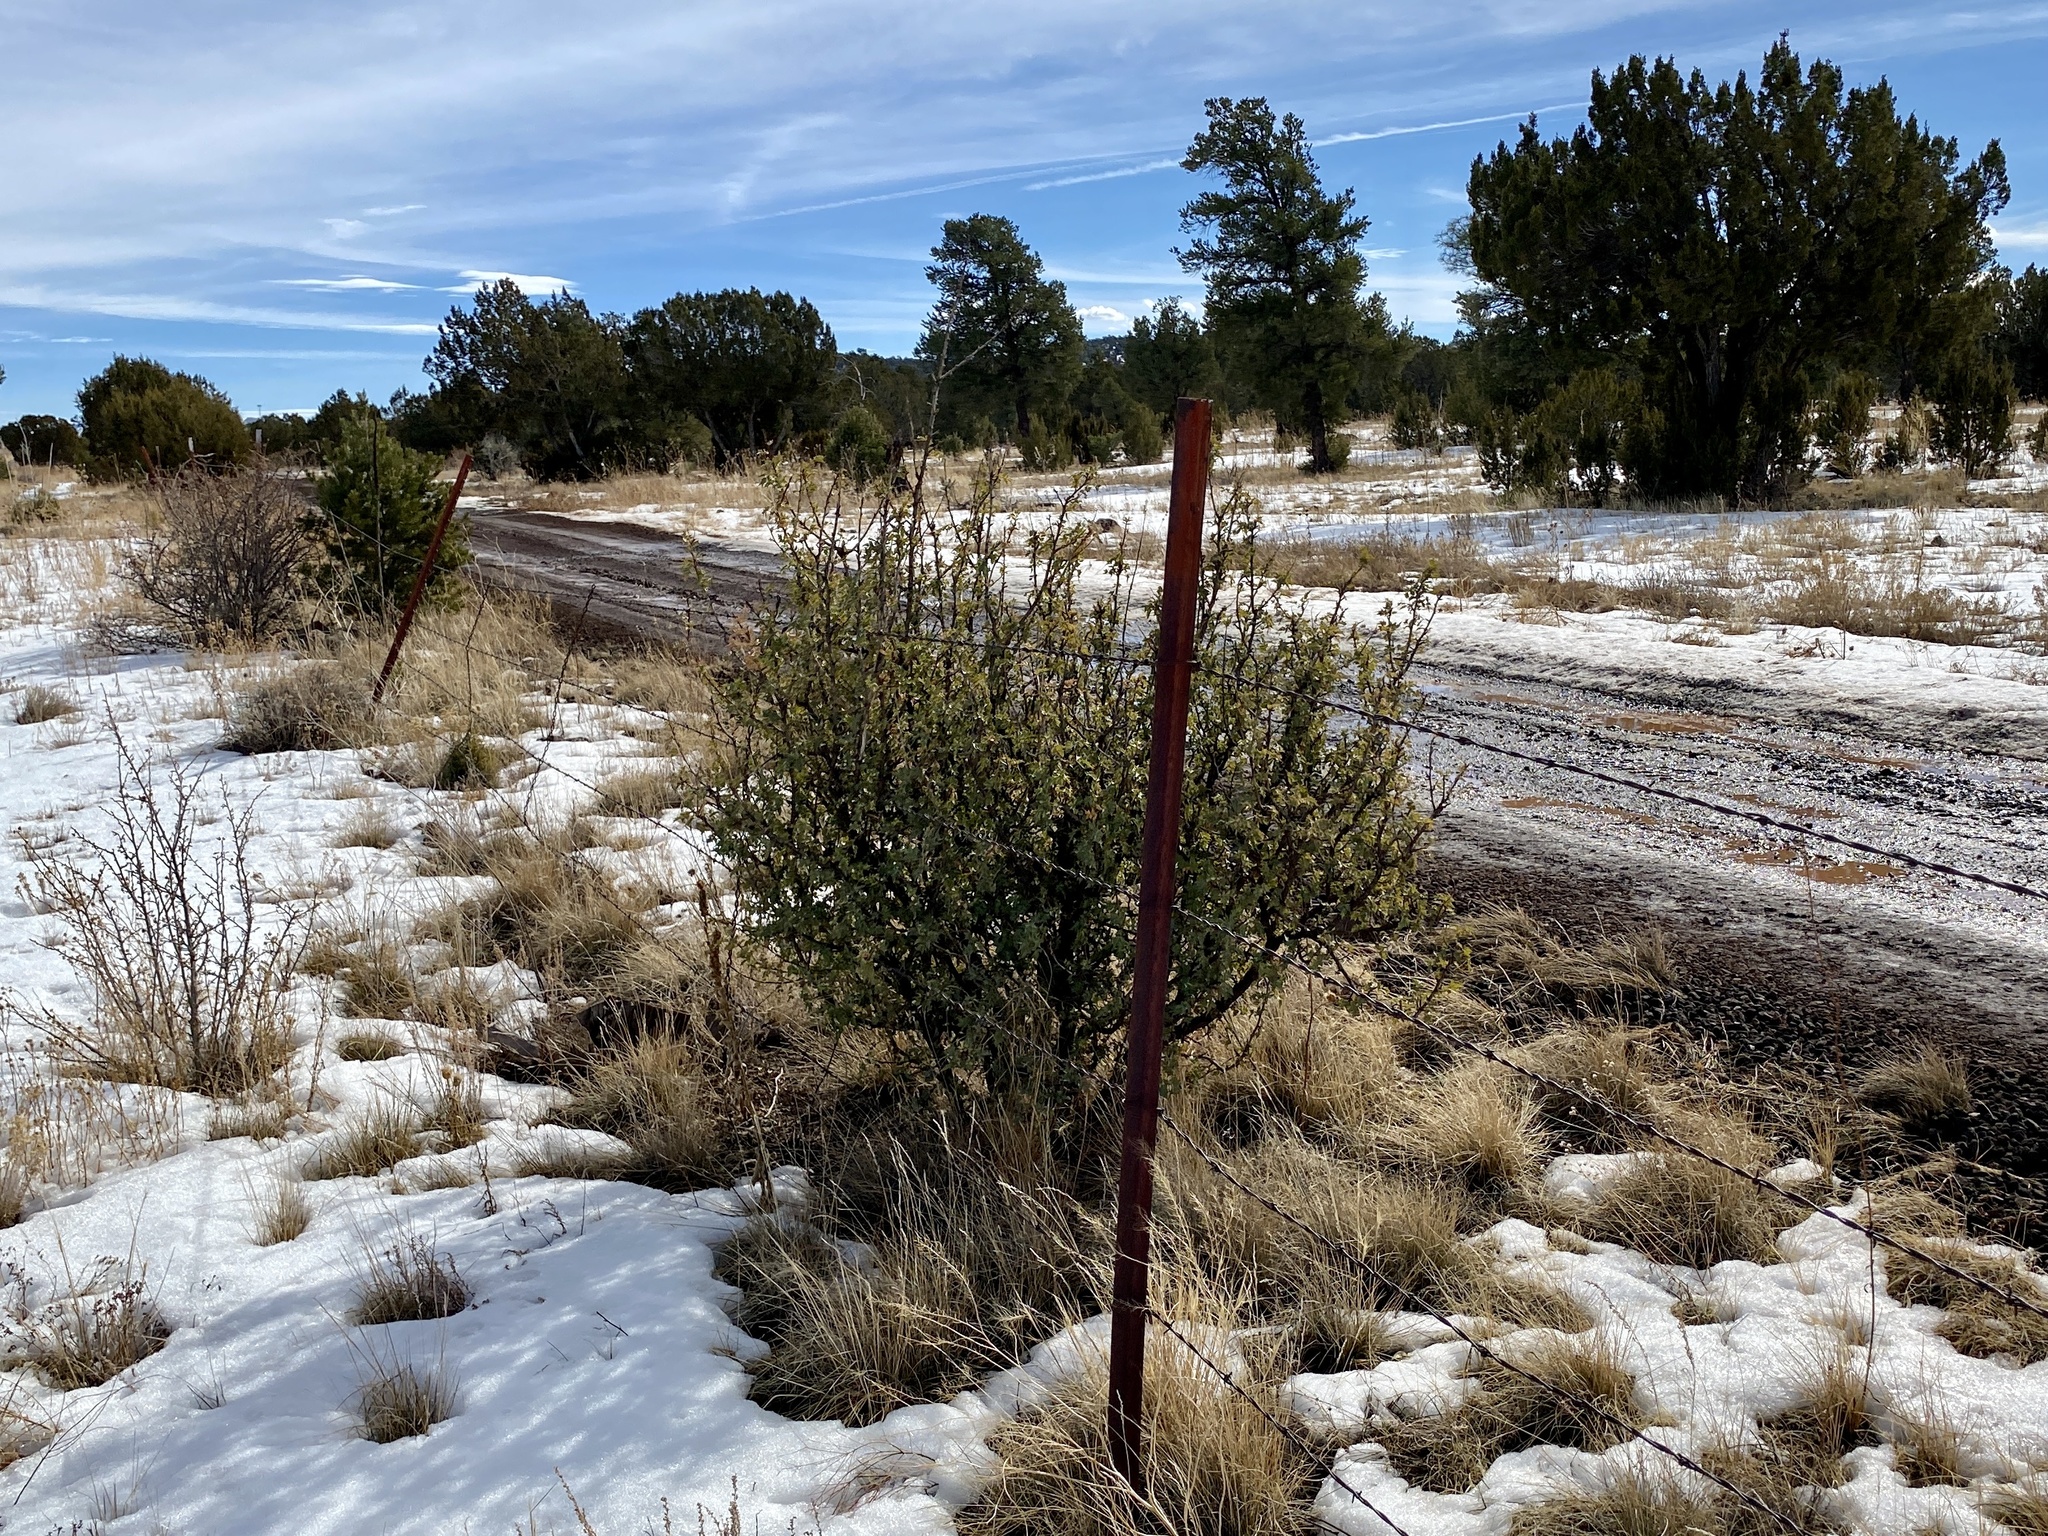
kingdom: Plantae
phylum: Tracheophyta
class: Magnoliopsida
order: Ranunculales
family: Berberidaceae
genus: Alloberberis
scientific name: Alloberberis haematocarpa
